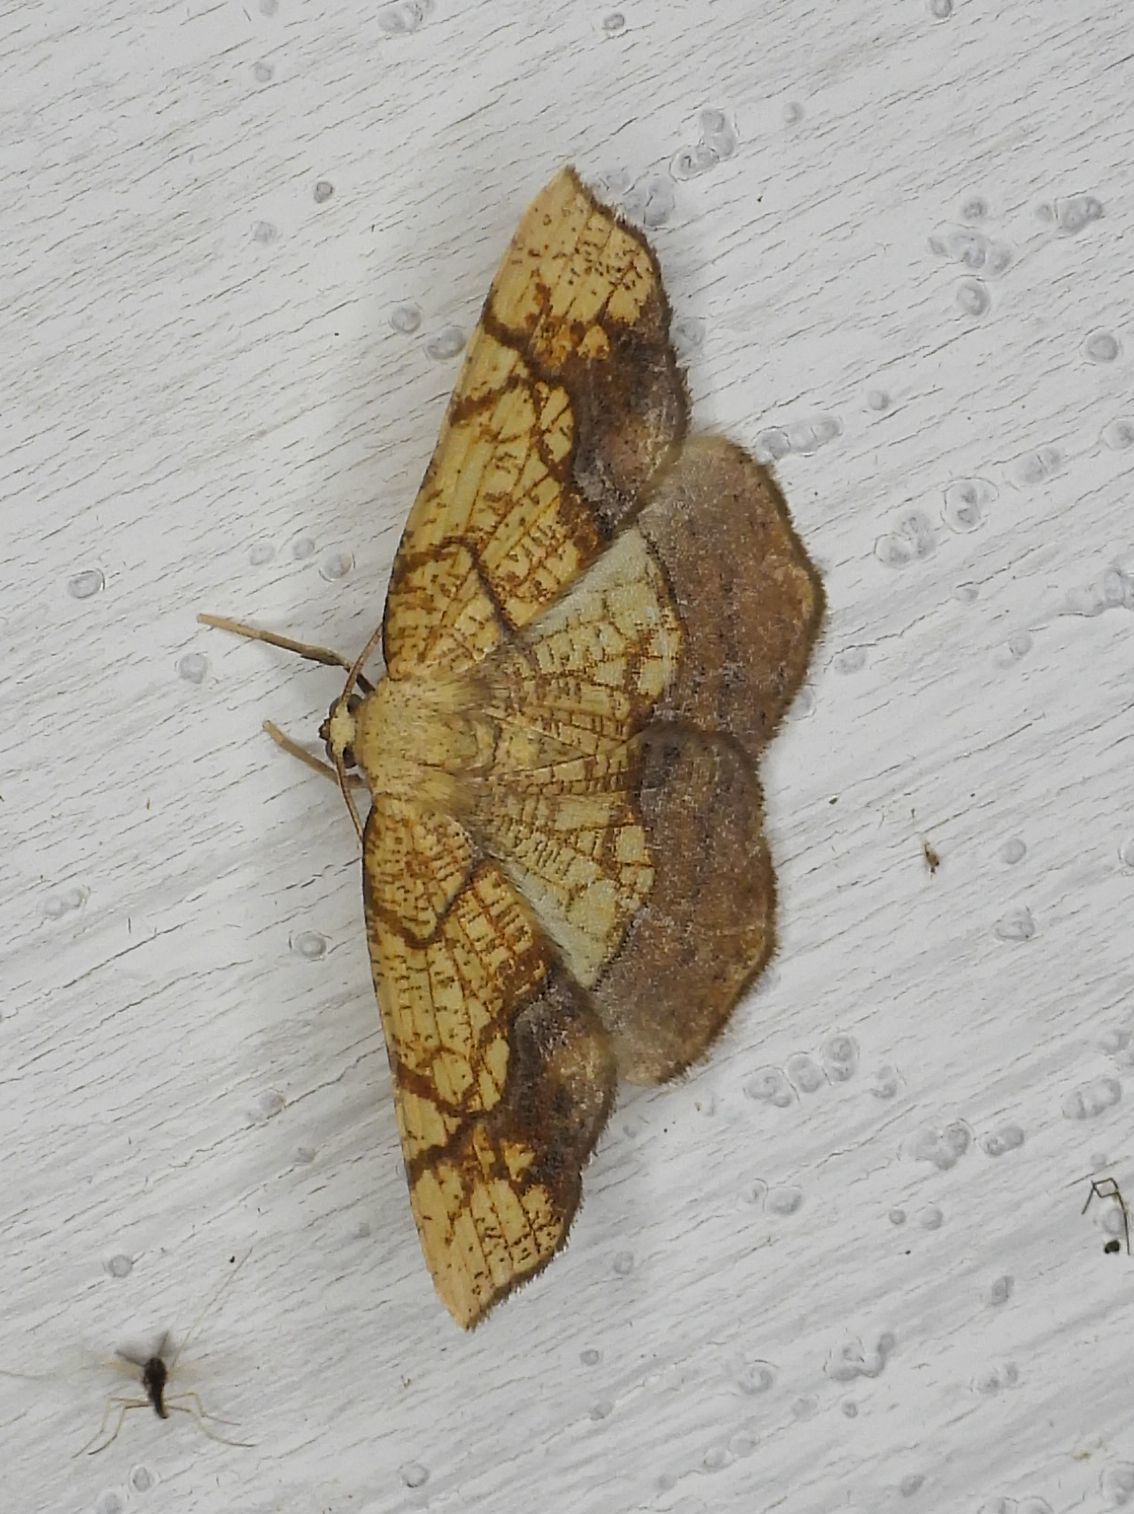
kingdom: Animalia
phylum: Arthropoda
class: Insecta
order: Lepidoptera
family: Geometridae
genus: Nematocampa
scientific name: Nematocampa resistaria
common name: Horned spanworm moth
